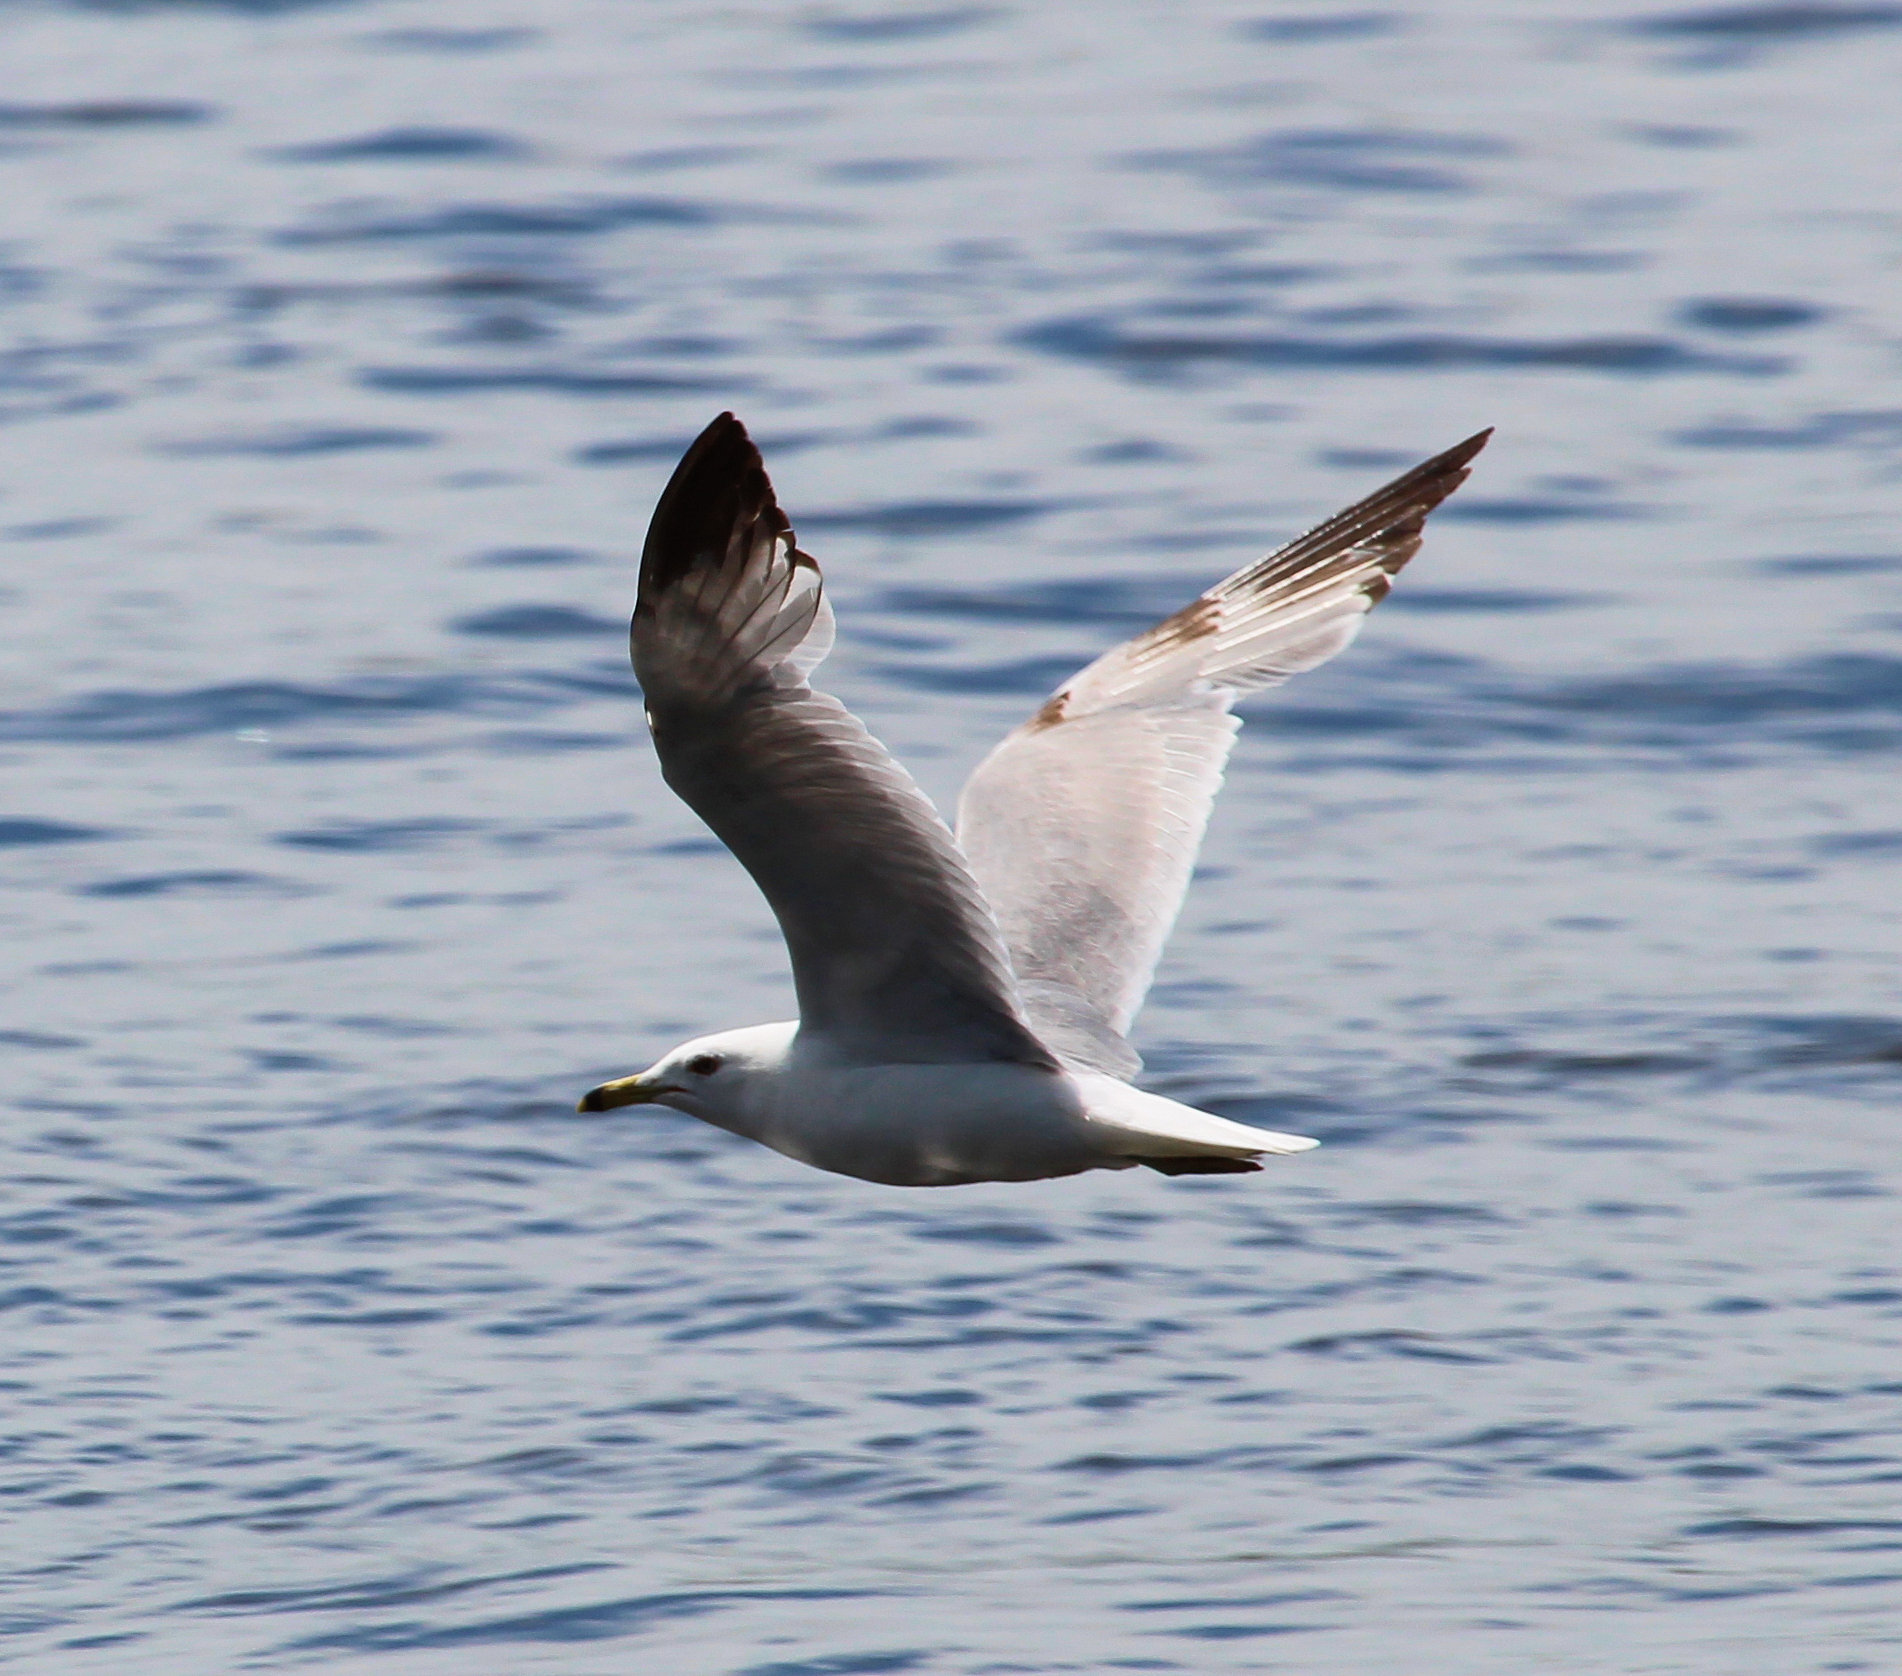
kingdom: Animalia
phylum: Chordata
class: Aves
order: Charadriiformes
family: Laridae
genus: Larus
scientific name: Larus delawarensis
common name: Ring-billed gull
